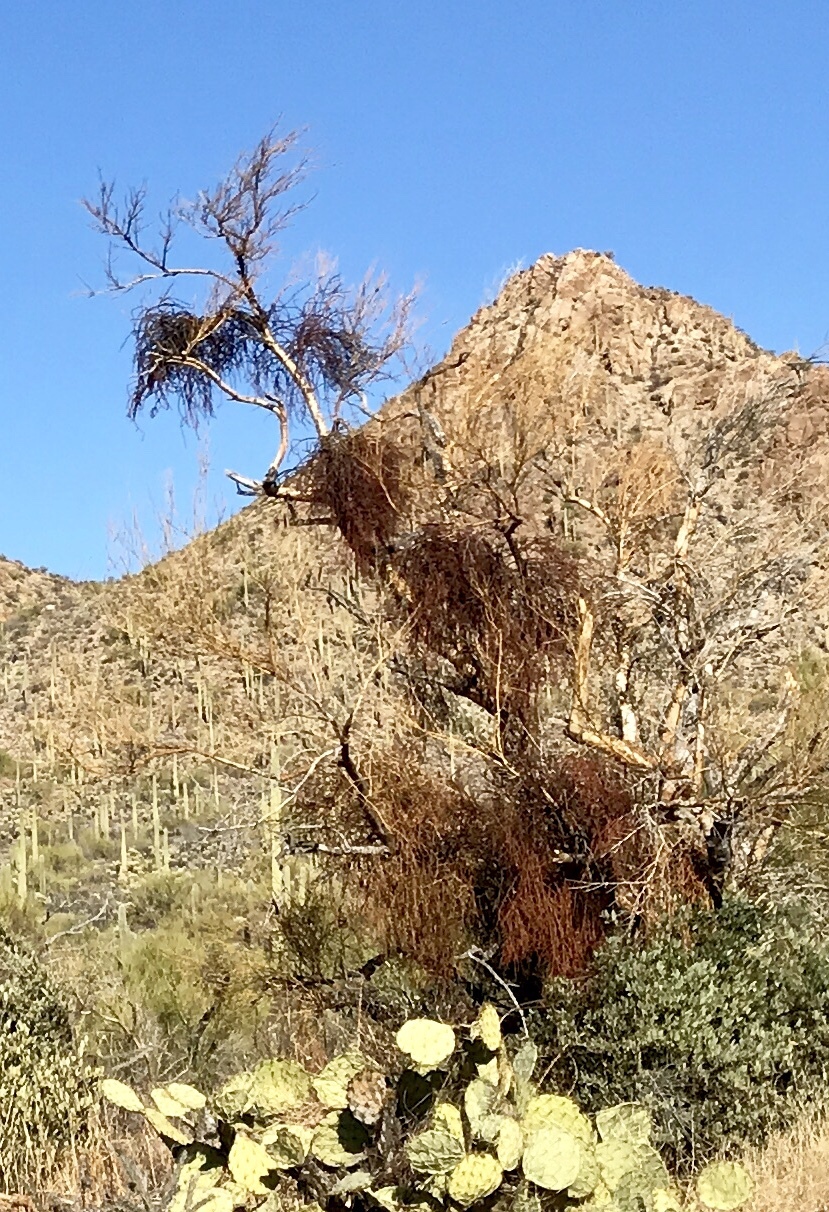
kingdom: Plantae
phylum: Tracheophyta
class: Magnoliopsida
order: Santalales
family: Viscaceae
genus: Phoradendron
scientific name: Phoradendron californicum
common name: Acacia mistletoe
